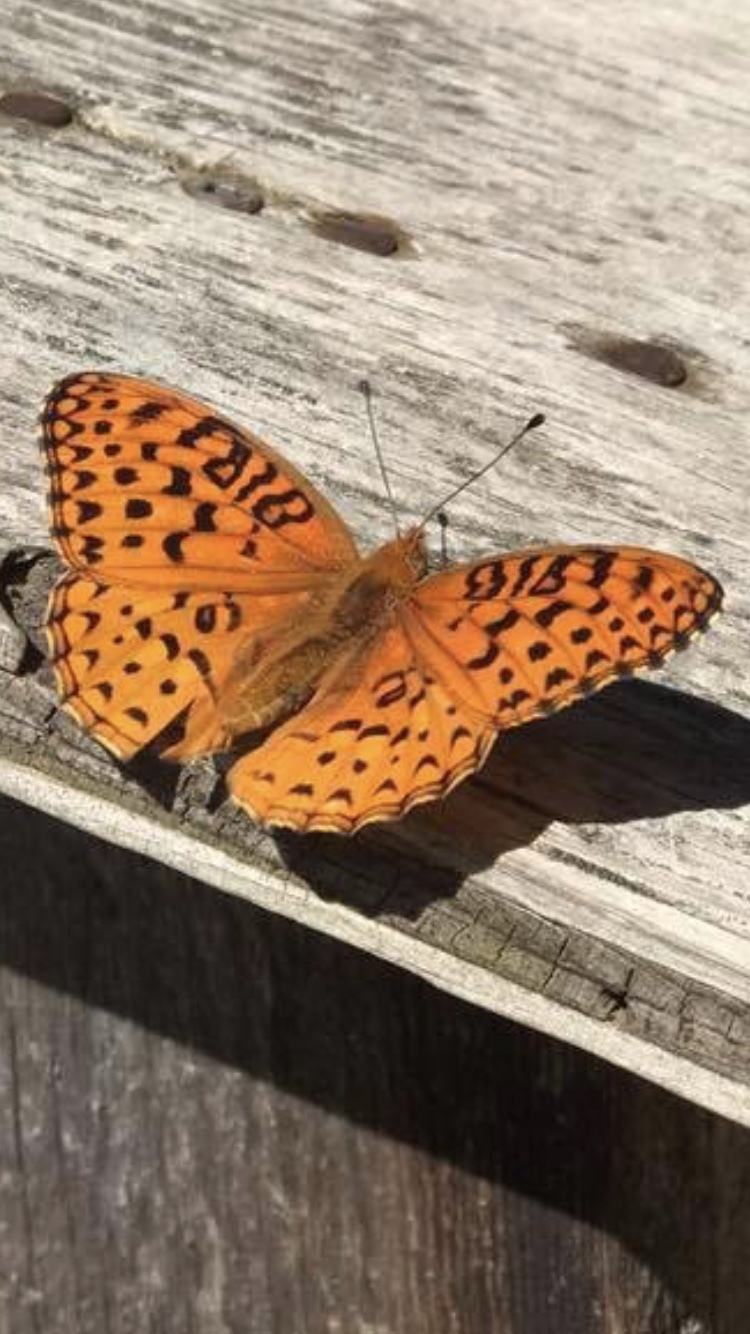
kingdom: Animalia
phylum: Arthropoda
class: Insecta
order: Lepidoptera
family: Nymphalidae
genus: Speyeria
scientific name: Speyeria aphrodite
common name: Aphrodite friitllary
